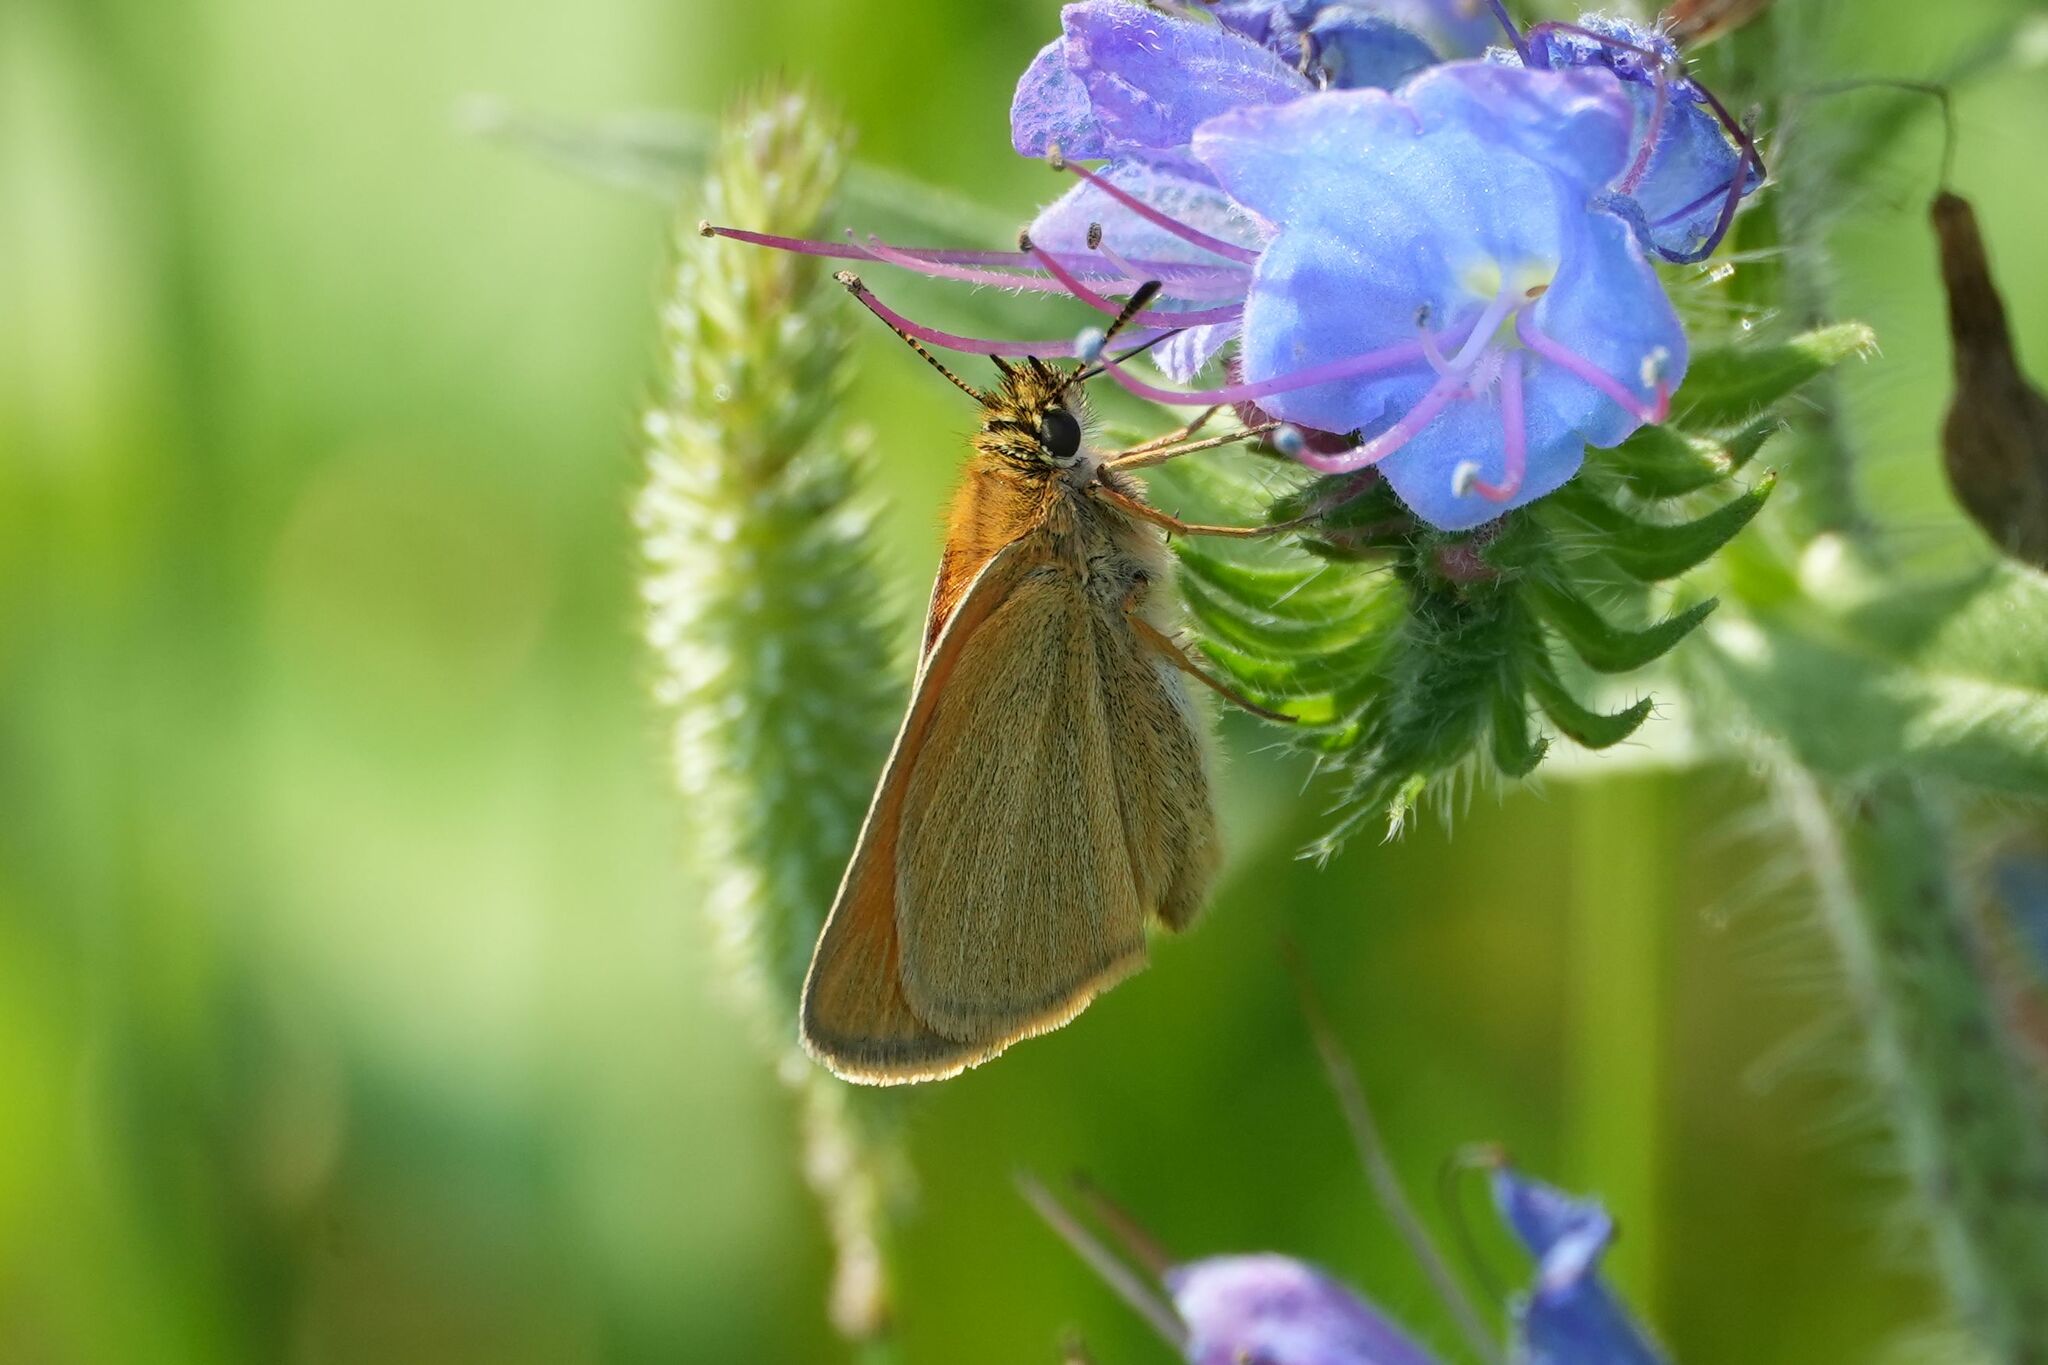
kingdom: Animalia
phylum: Arthropoda
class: Insecta
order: Lepidoptera
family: Hesperiidae
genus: Thymelicus
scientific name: Thymelicus lineola
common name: Essex skipper
